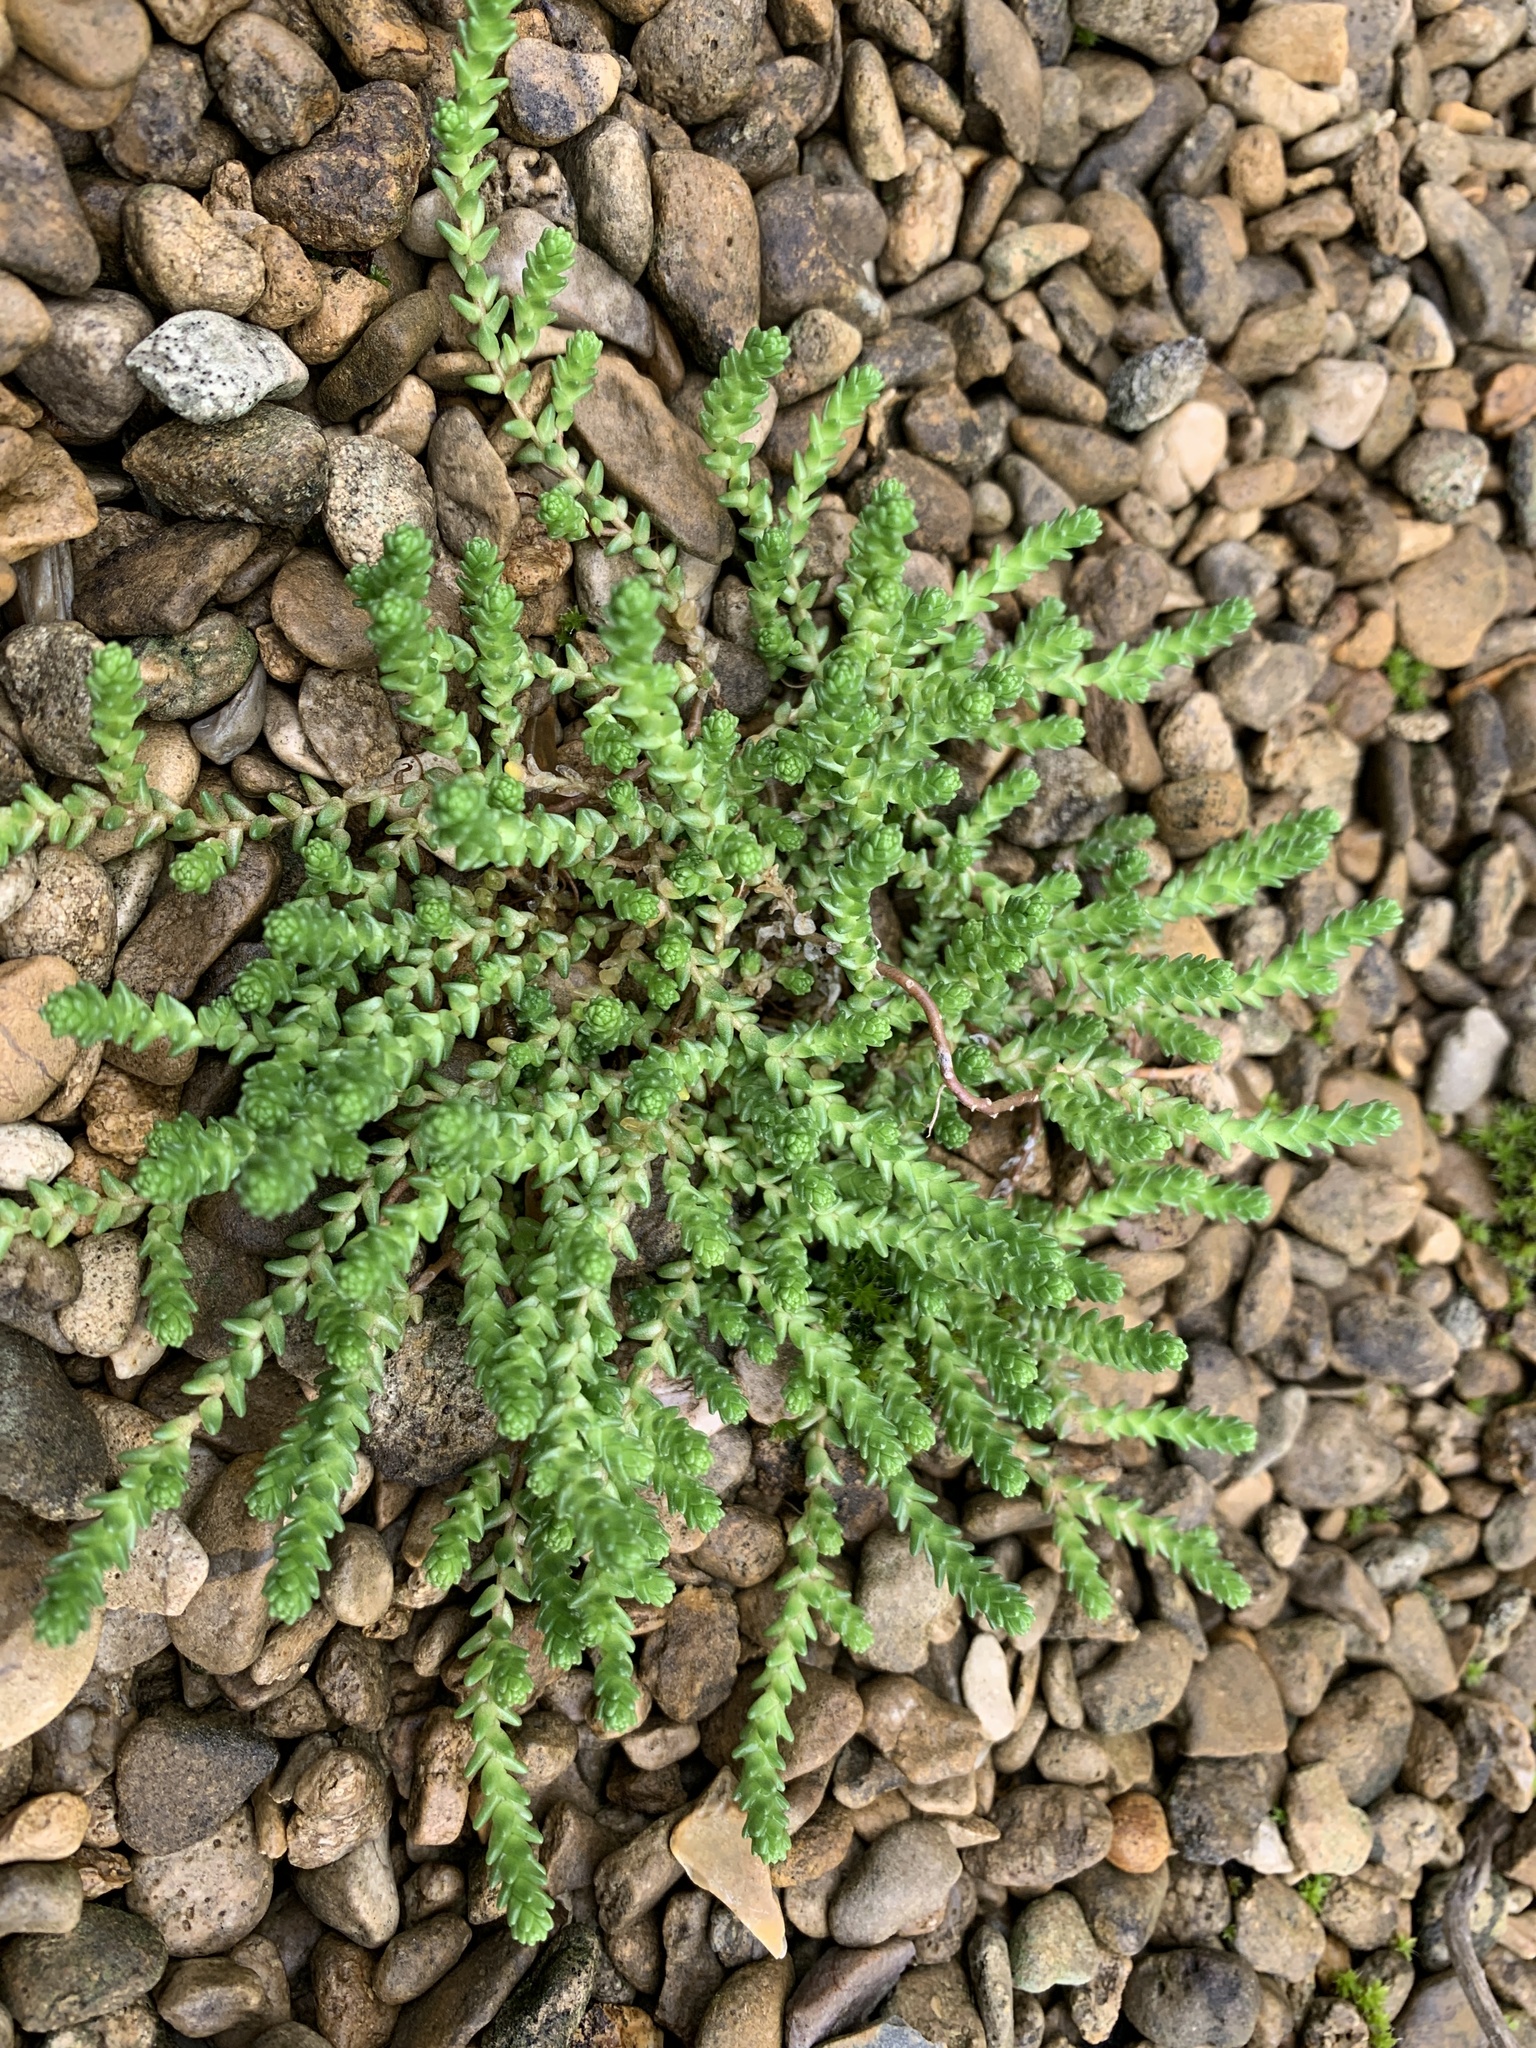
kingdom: Plantae
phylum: Tracheophyta
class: Magnoliopsida
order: Saxifragales
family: Crassulaceae
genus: Sedum
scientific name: Sedum acre
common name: Biting stonecrop
